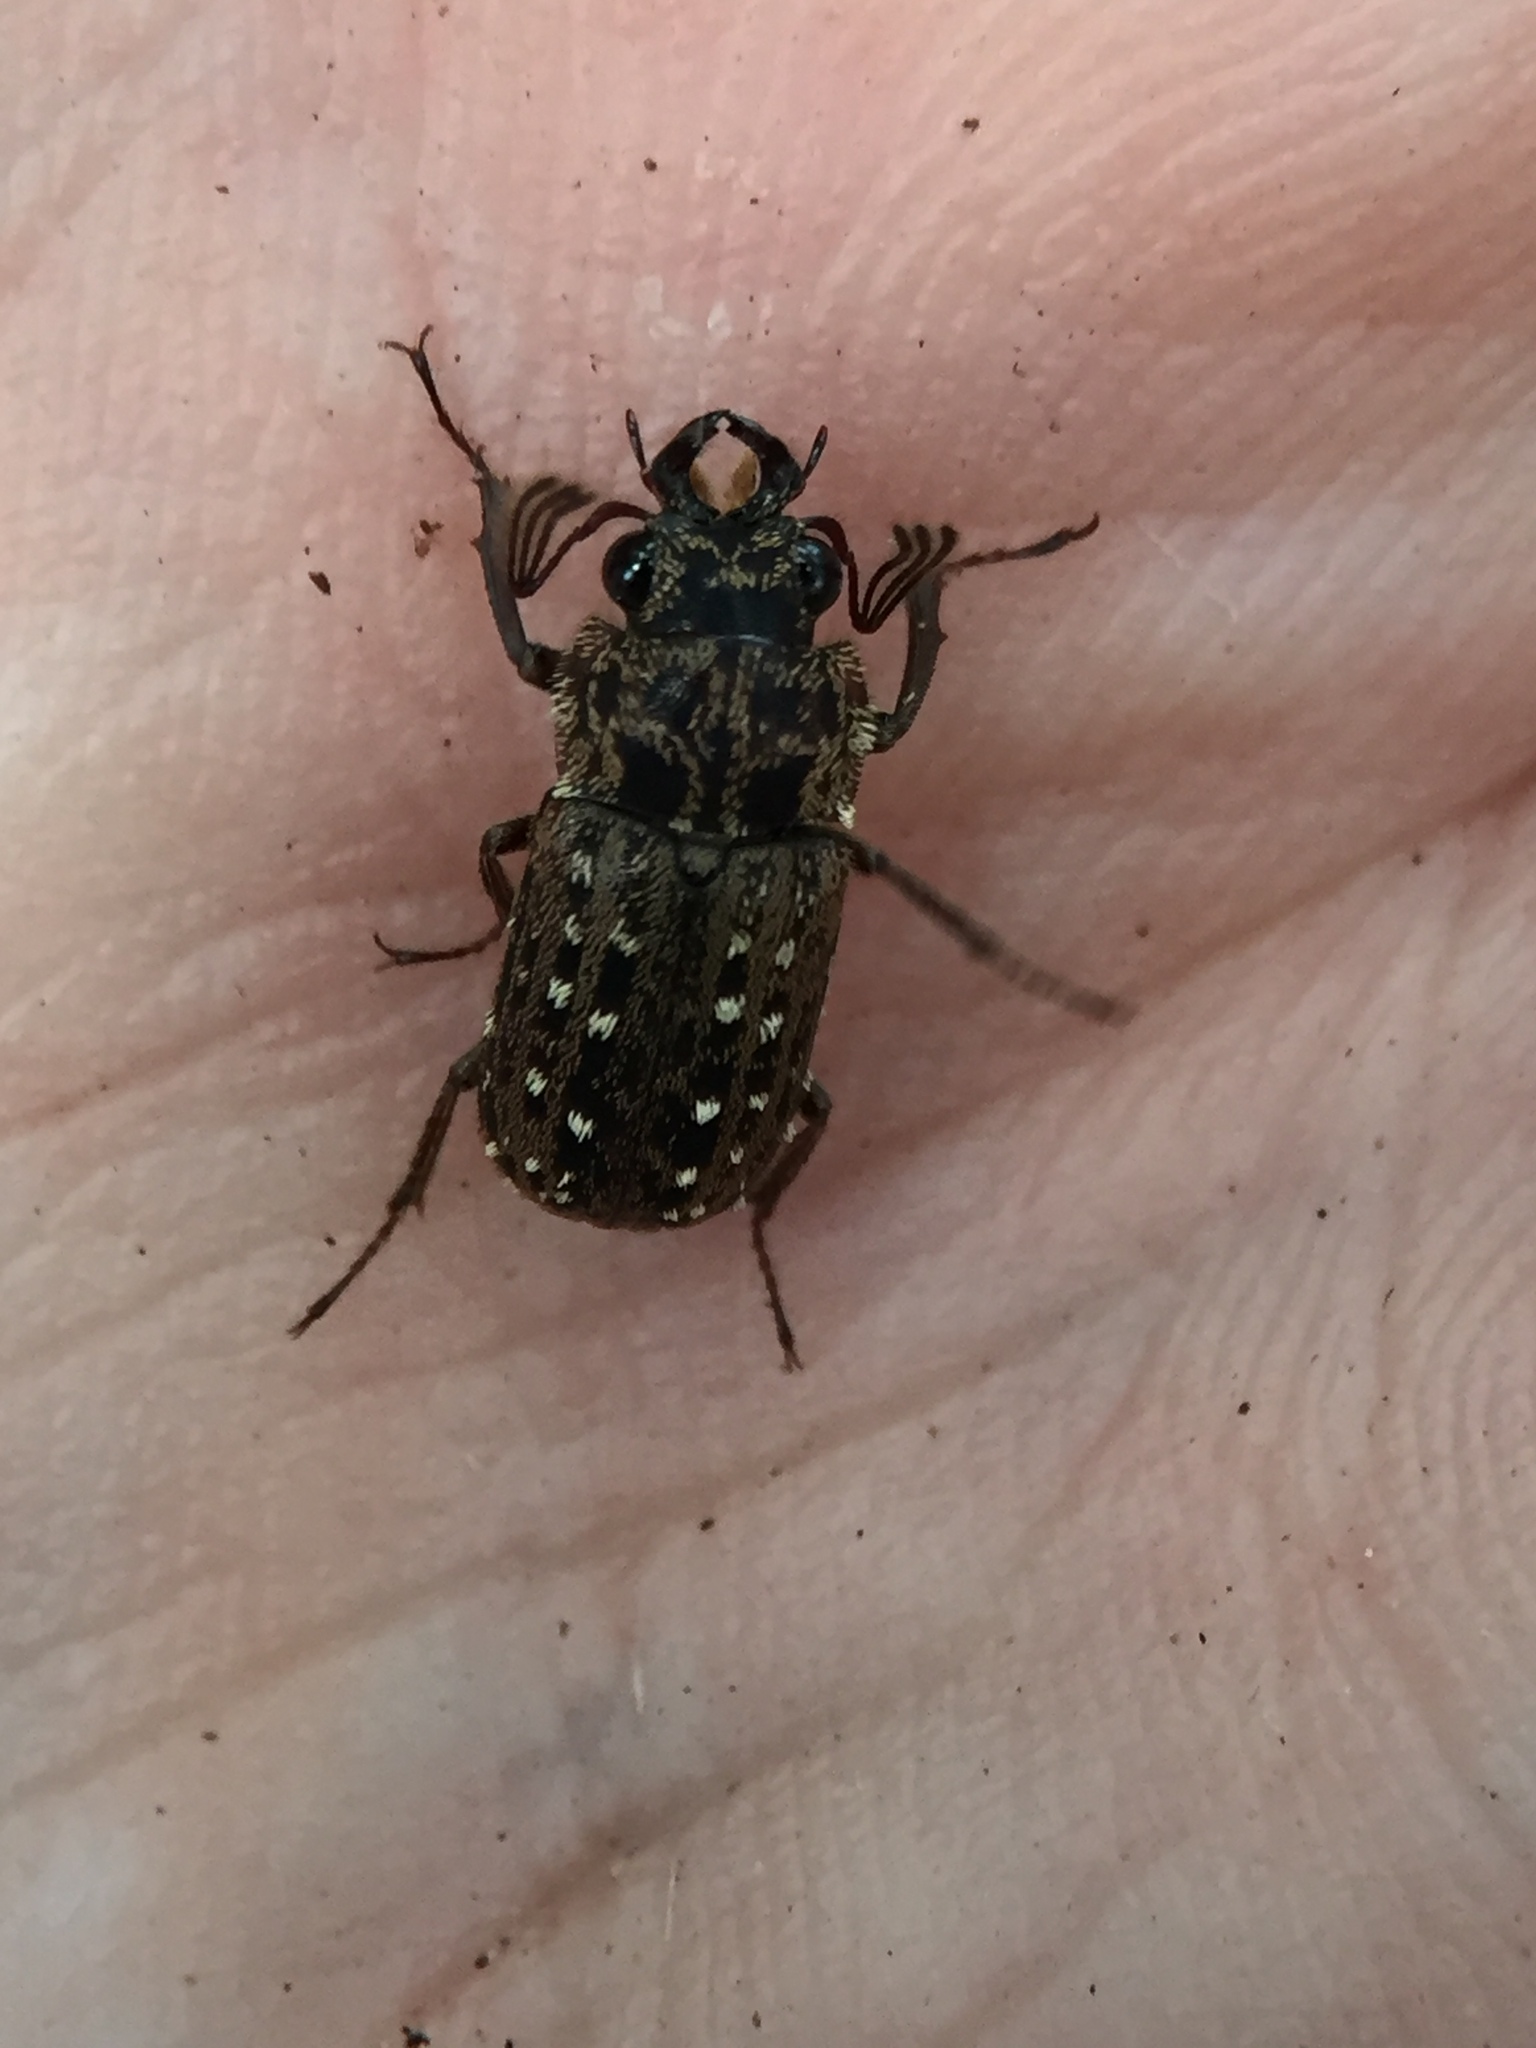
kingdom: Animalia
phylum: Arthropoda
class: Insecta
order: Coleoptera
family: Lucanidae
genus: Mitophyllus
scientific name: Mitophyllus arcuatus
